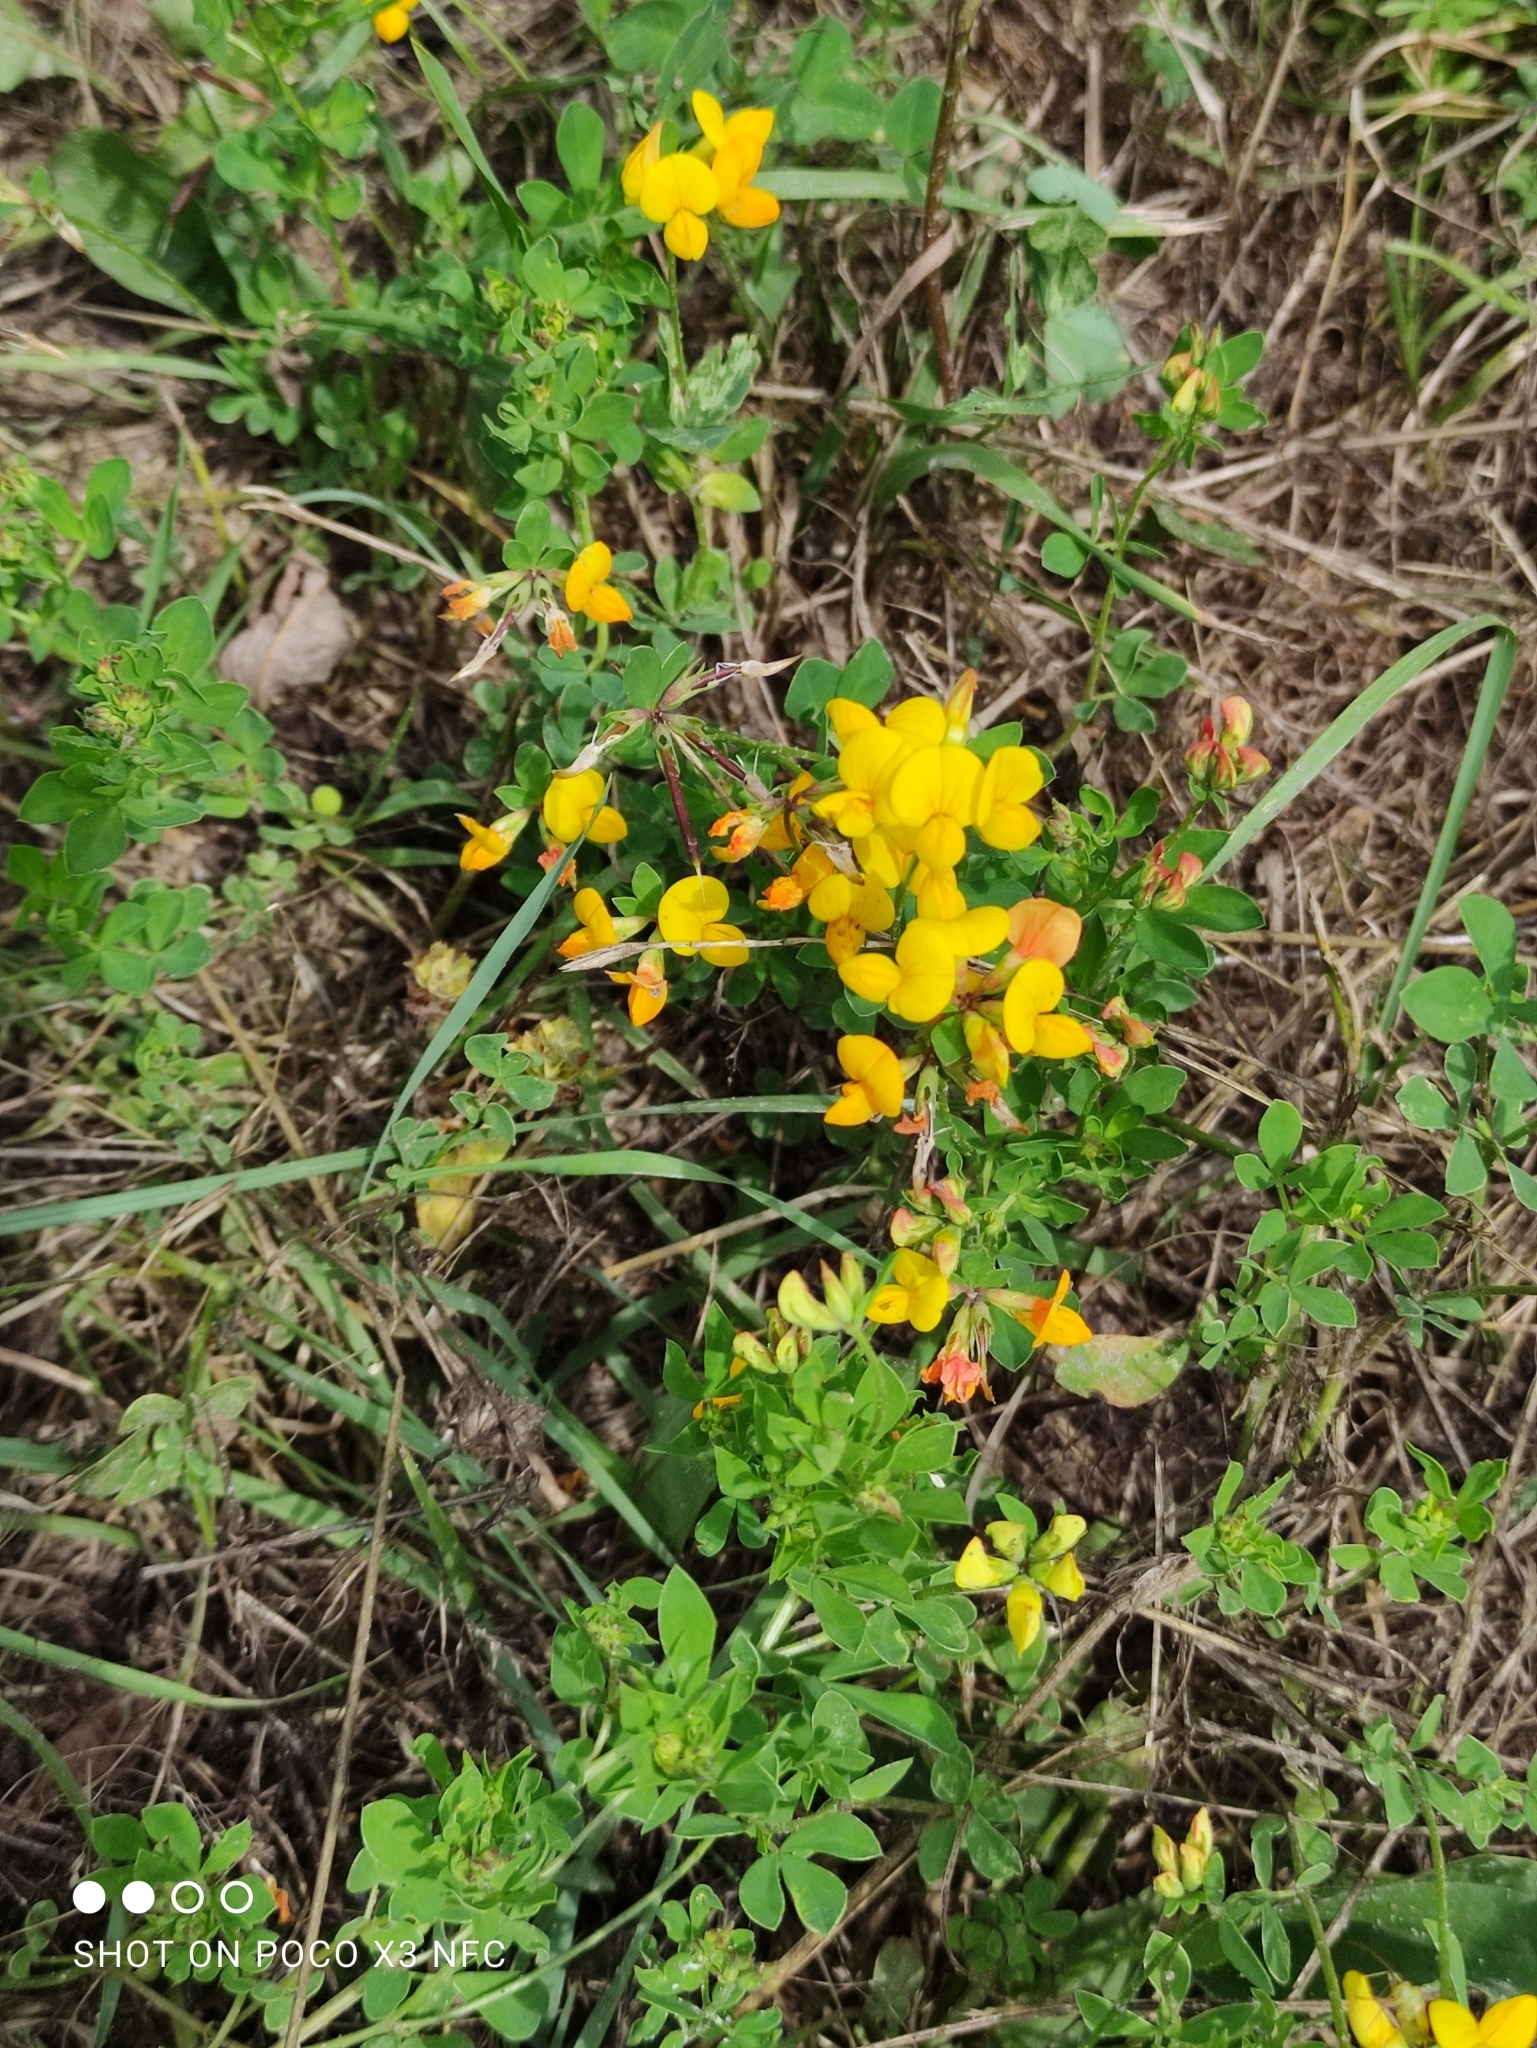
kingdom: Plantae
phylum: Tracheophyta
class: Magnoliopsida
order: Fabales
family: Fabaceae
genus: Lotus
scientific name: Lotus corniculatus
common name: Common bird's-foot-trefoil
